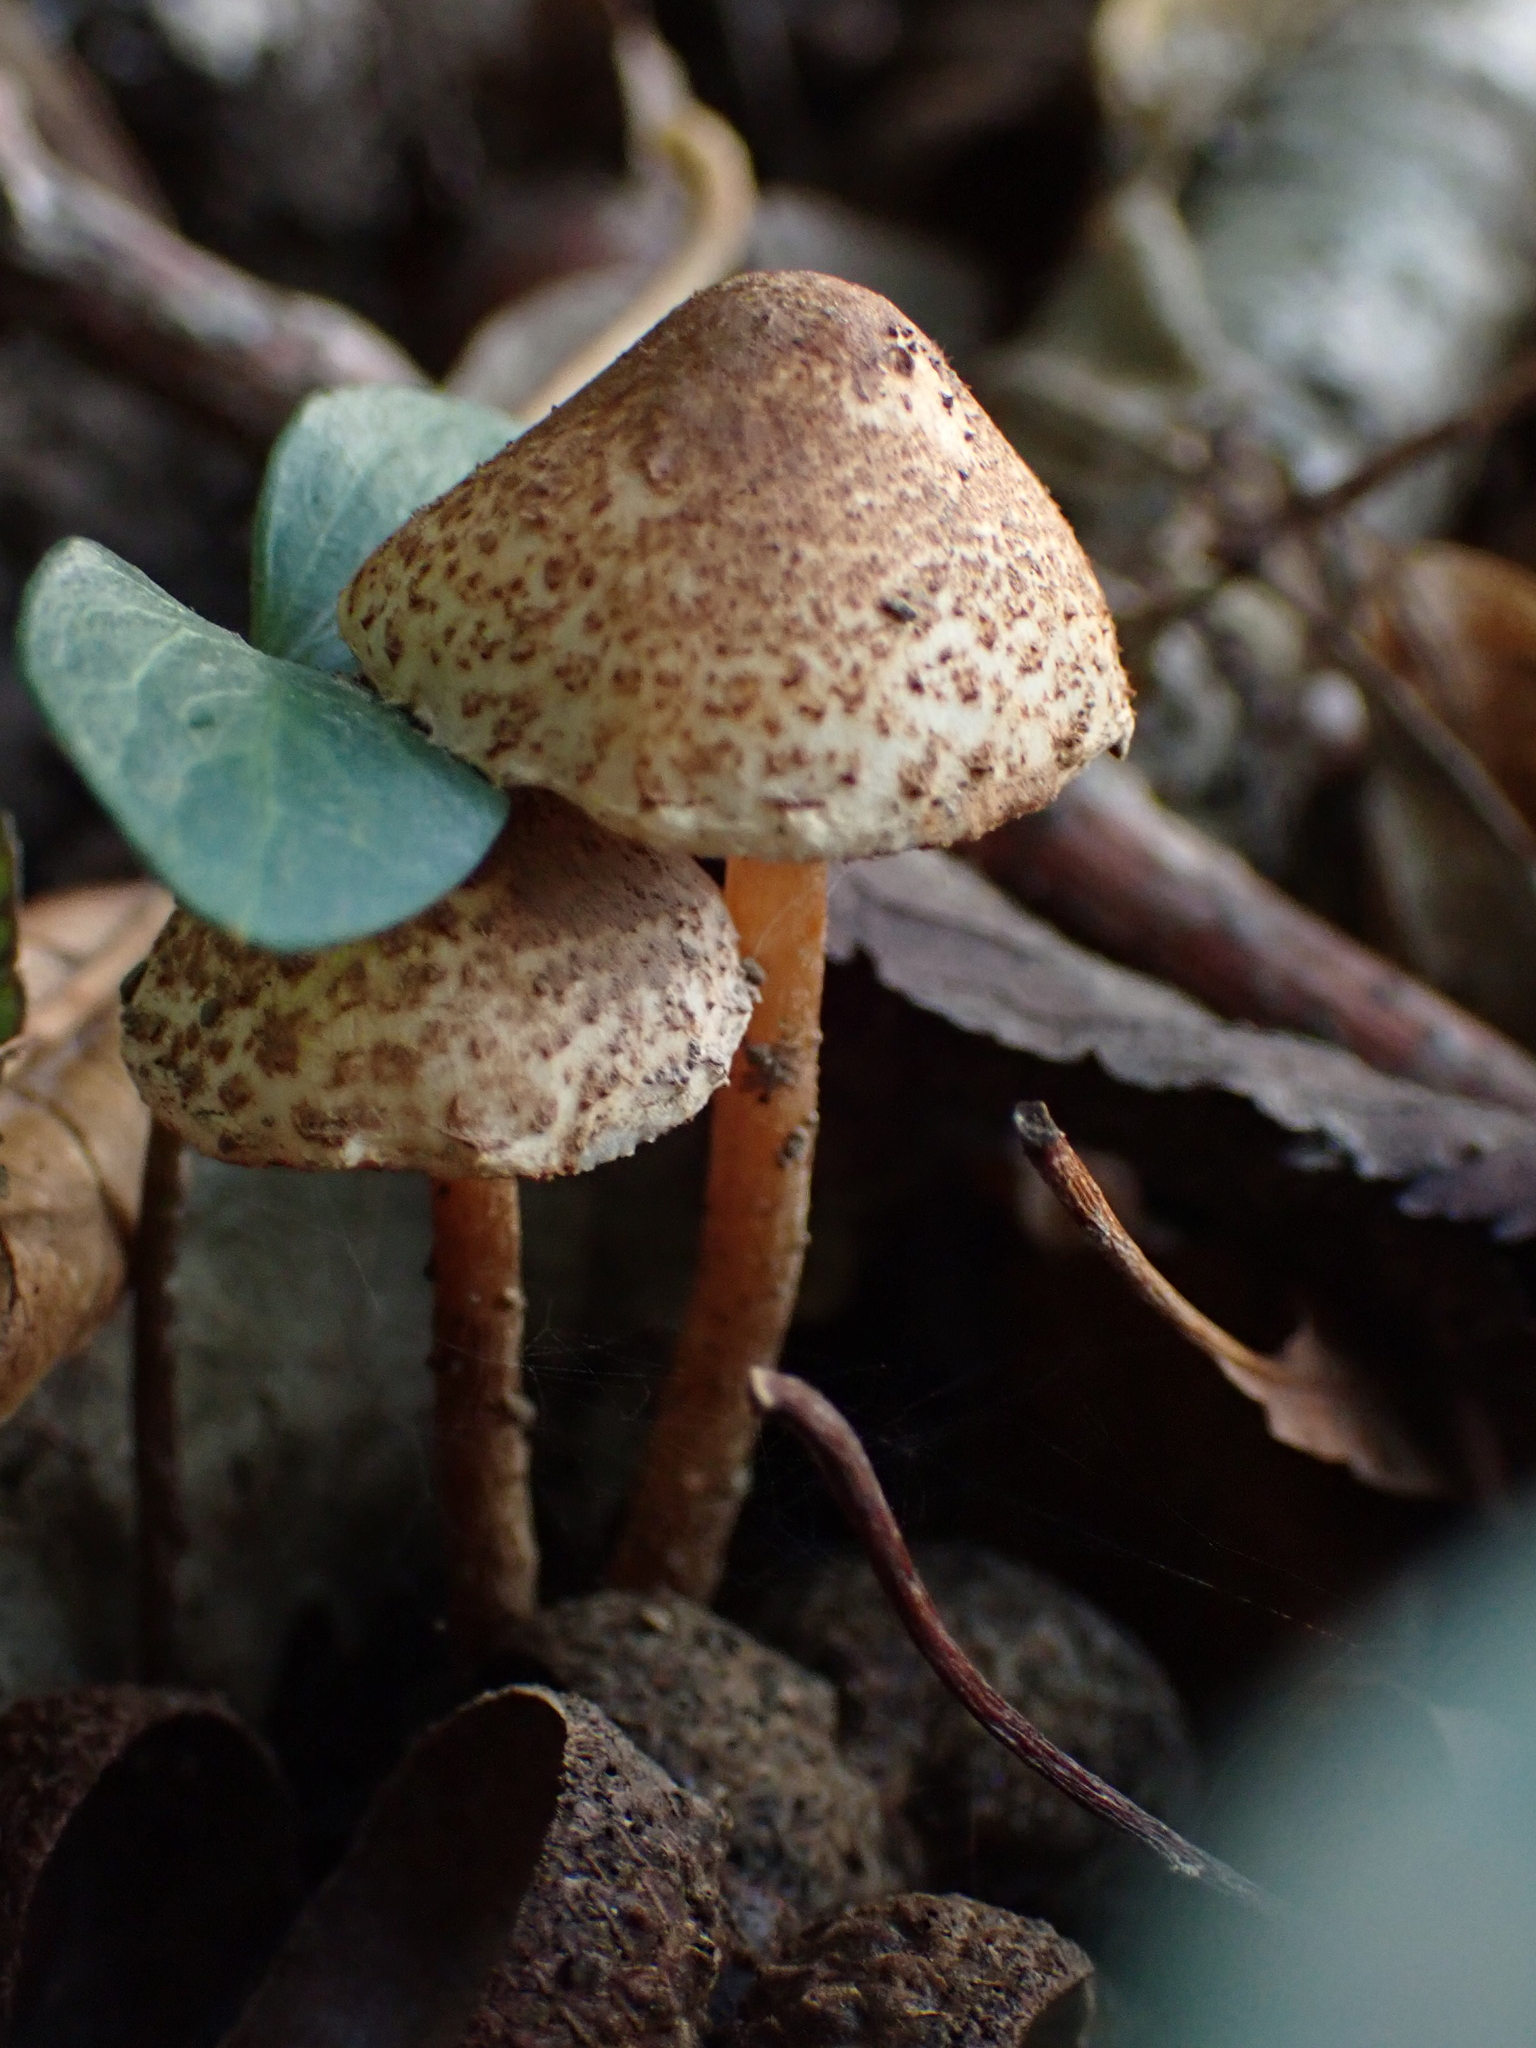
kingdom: Fungi
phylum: Basidiomycota
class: Agaricomycetes
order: Agaricales
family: Agaricaceae
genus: Lepiota
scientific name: Lepiota castanea
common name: Chestnut dapperling
